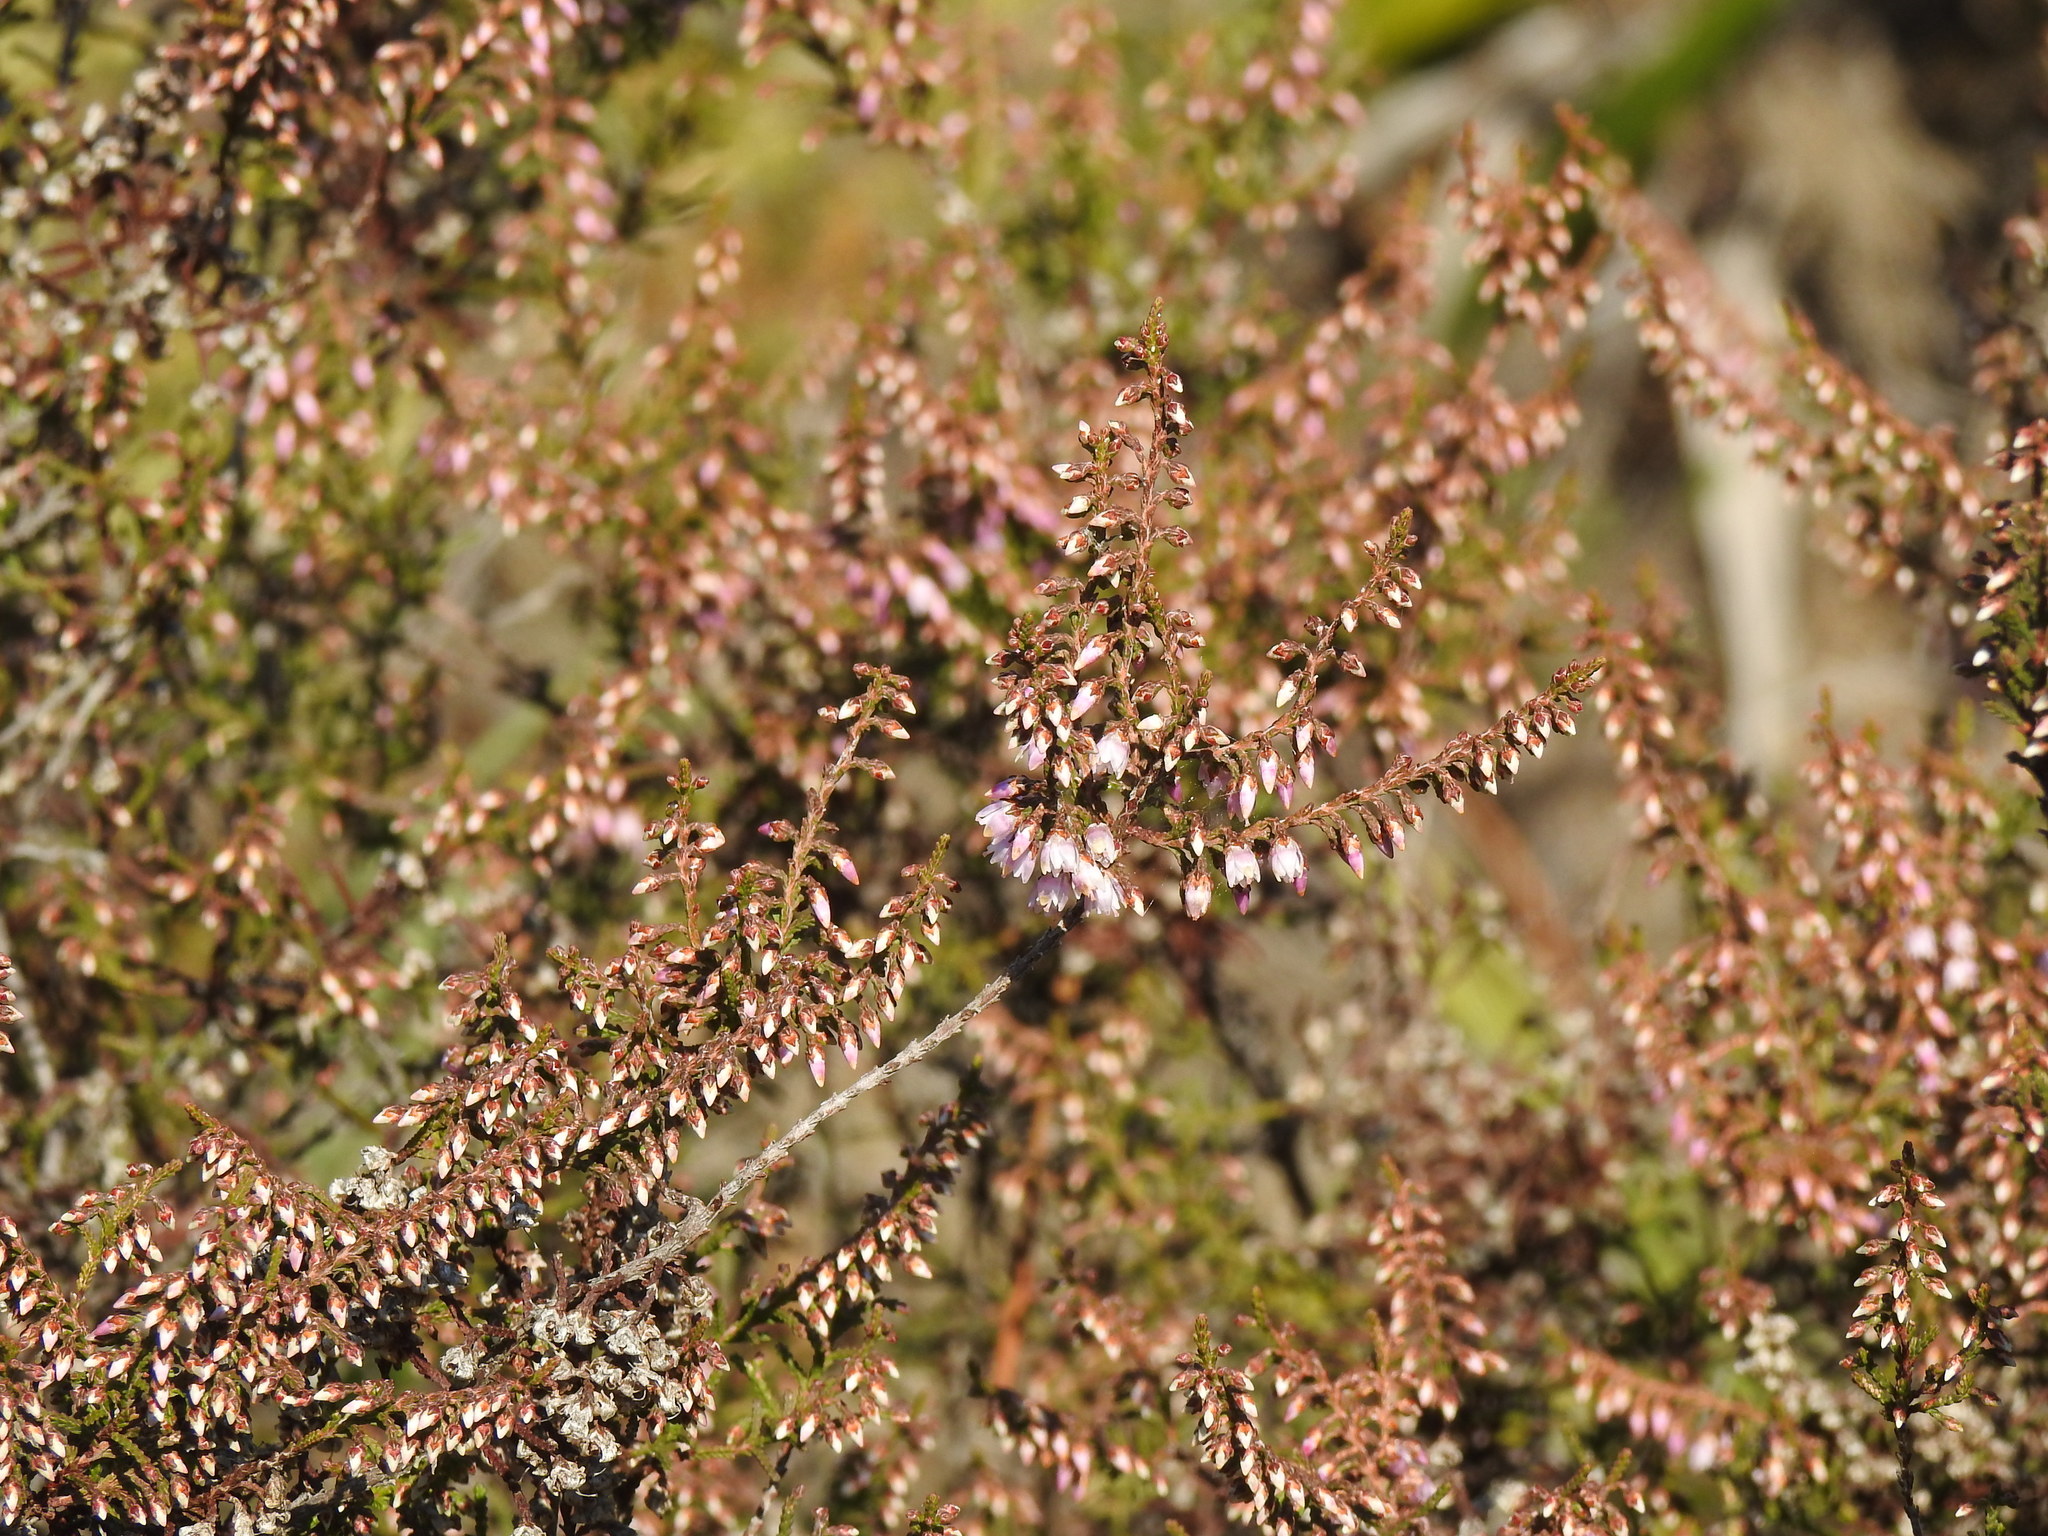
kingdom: Plantae
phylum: Tracheophyta
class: Magnoliopsida
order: Ericales
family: Ericaceae
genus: Calluna
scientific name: Calluna vulgaris
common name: Heather
